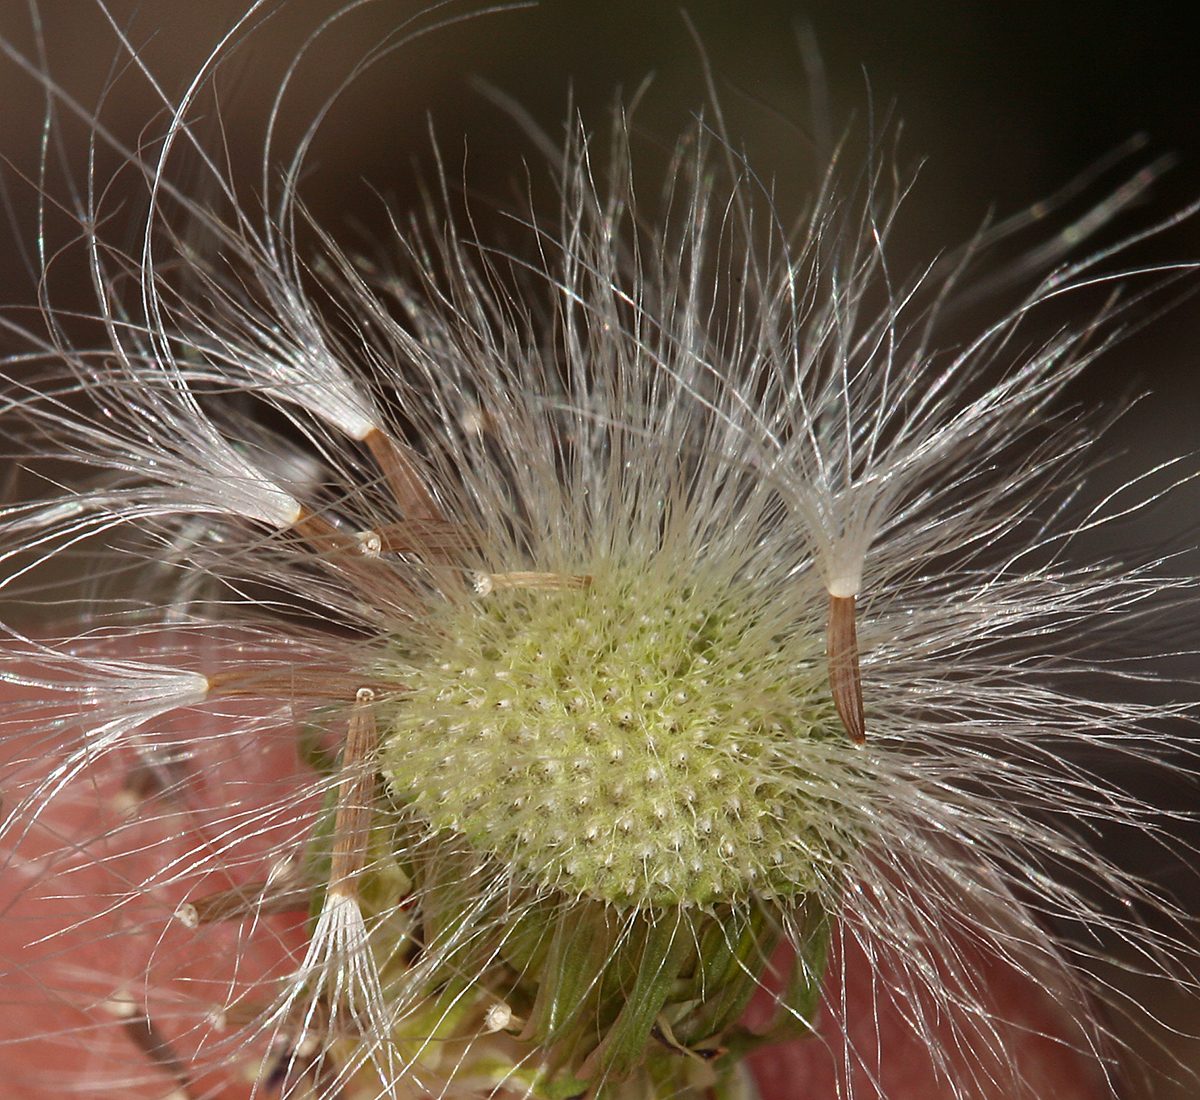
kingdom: Plantae
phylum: Tracheophyta
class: Magnoliopsida
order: Asterales
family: Asteraceae
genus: Malacothrix
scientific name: Malacothrix glabrata
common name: Smooth desert-dandelion
